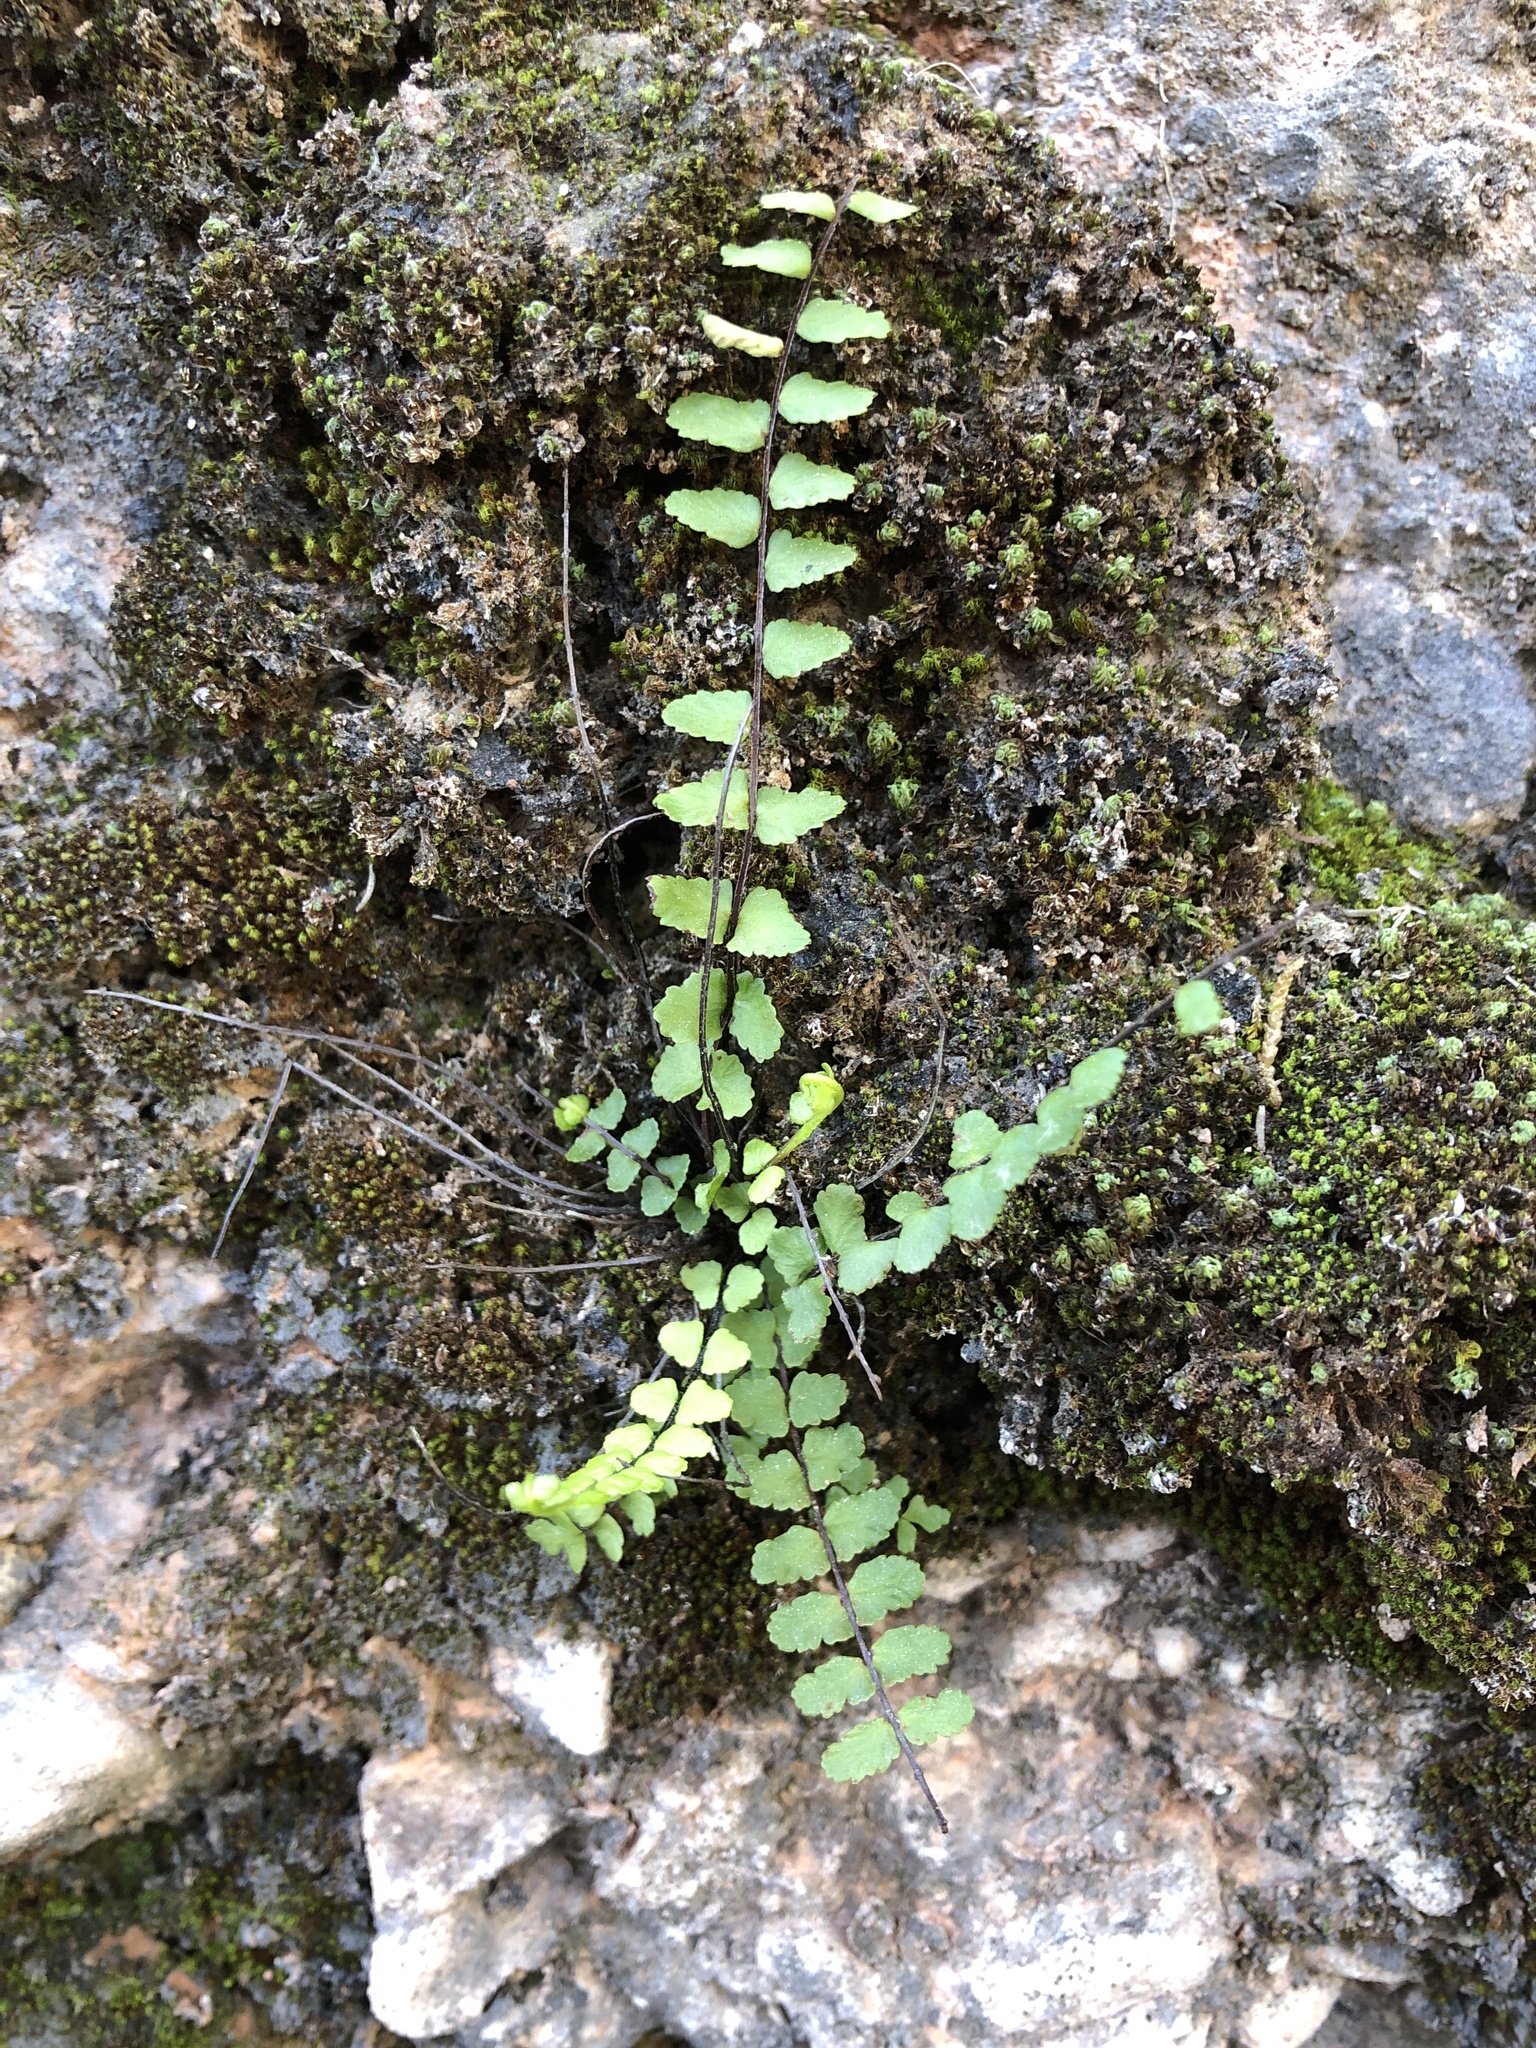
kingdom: Plantae
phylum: Tracheophyta
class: Polypodiopsida
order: Polypodiales
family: Aspleniaceae
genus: Asplenium
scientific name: Asplenium trichomanes
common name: Maidenhair spleenwort
